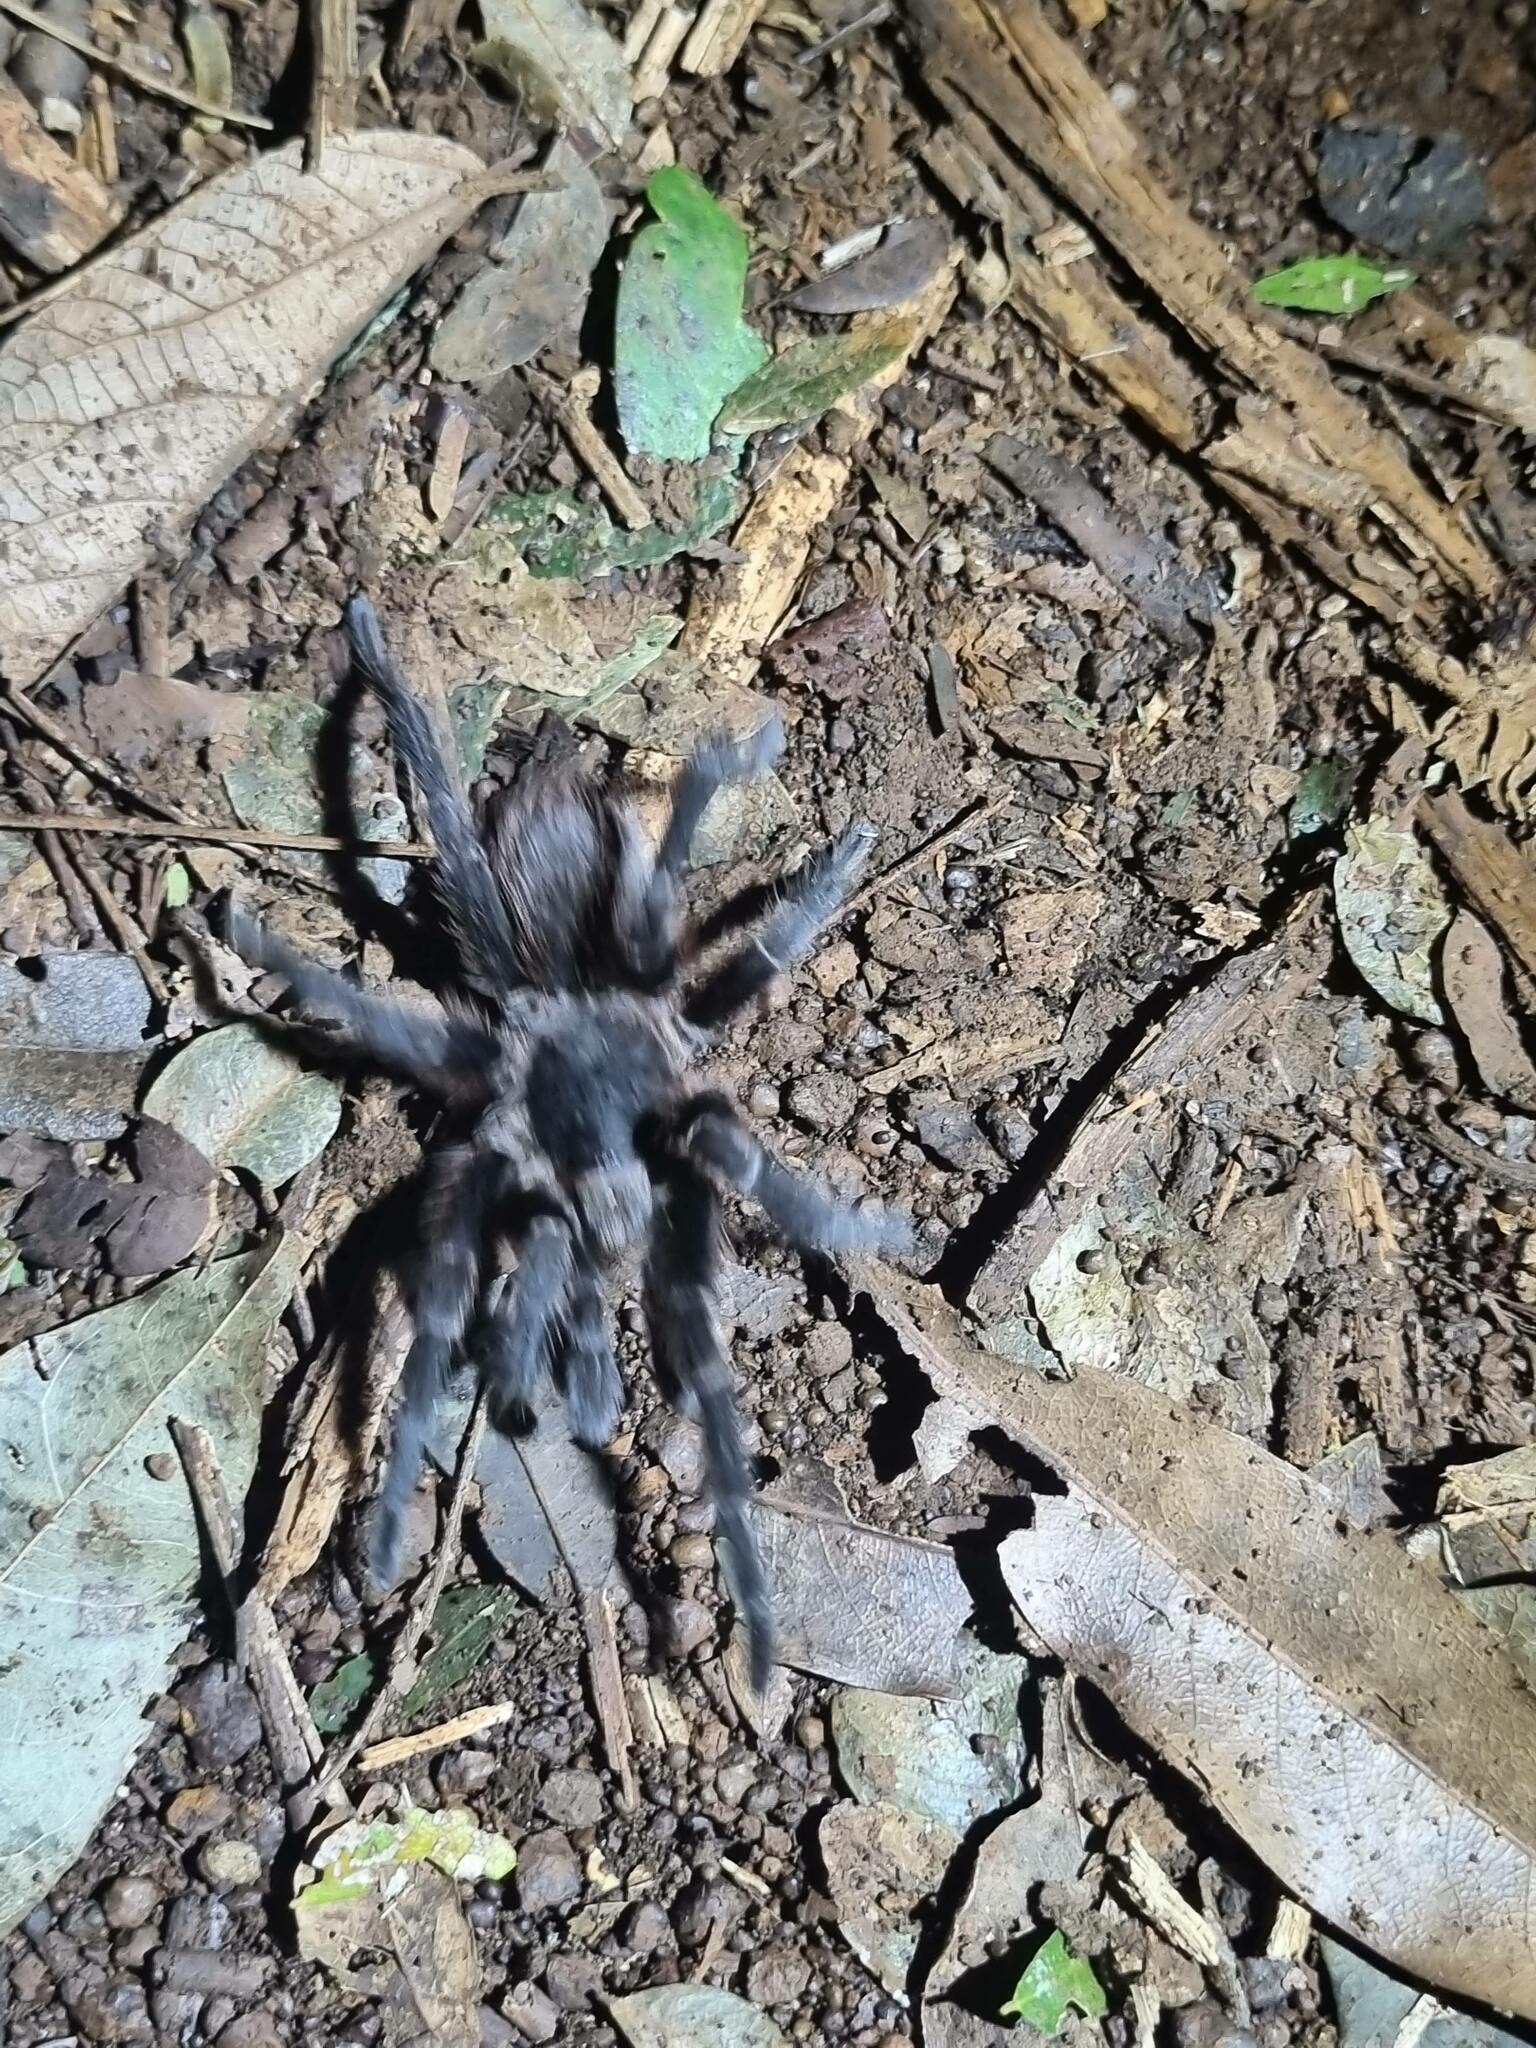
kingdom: Animalia
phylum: Arthropoda
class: Arachnida
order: Araneae
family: Theraphosidae
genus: Pterinopelma
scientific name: Pterinopelma longisternale
